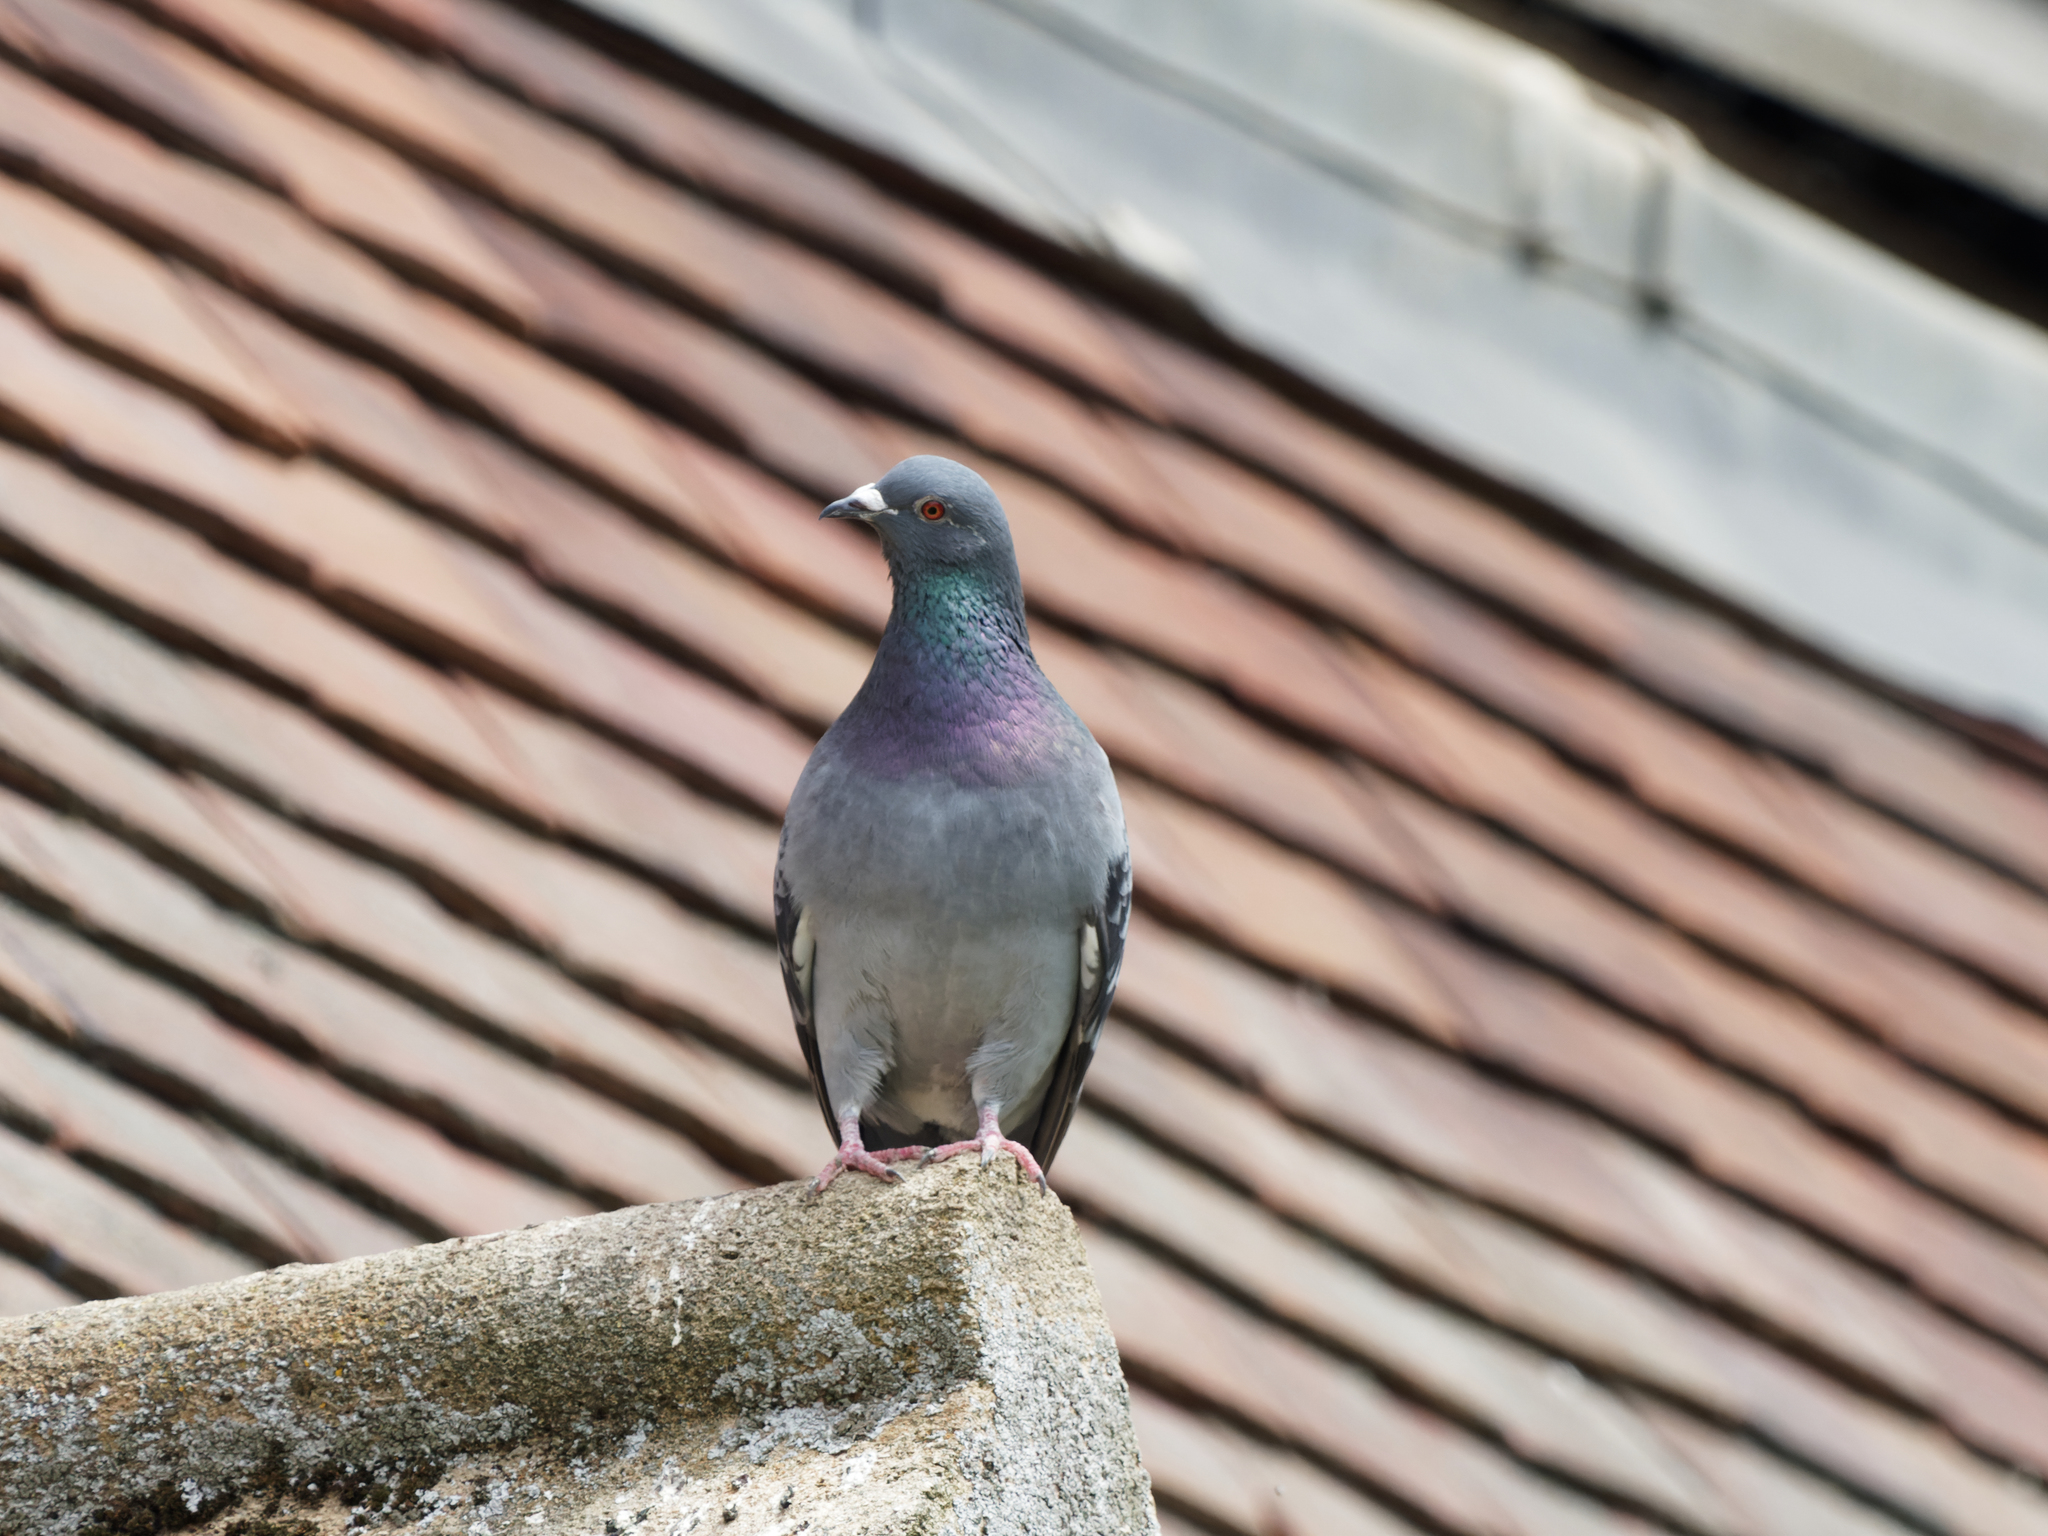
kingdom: Animalia
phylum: Chordata
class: Aves
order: Columbiformes
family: Columbidae
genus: Columba
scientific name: Columba livia
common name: Rock pigeon
